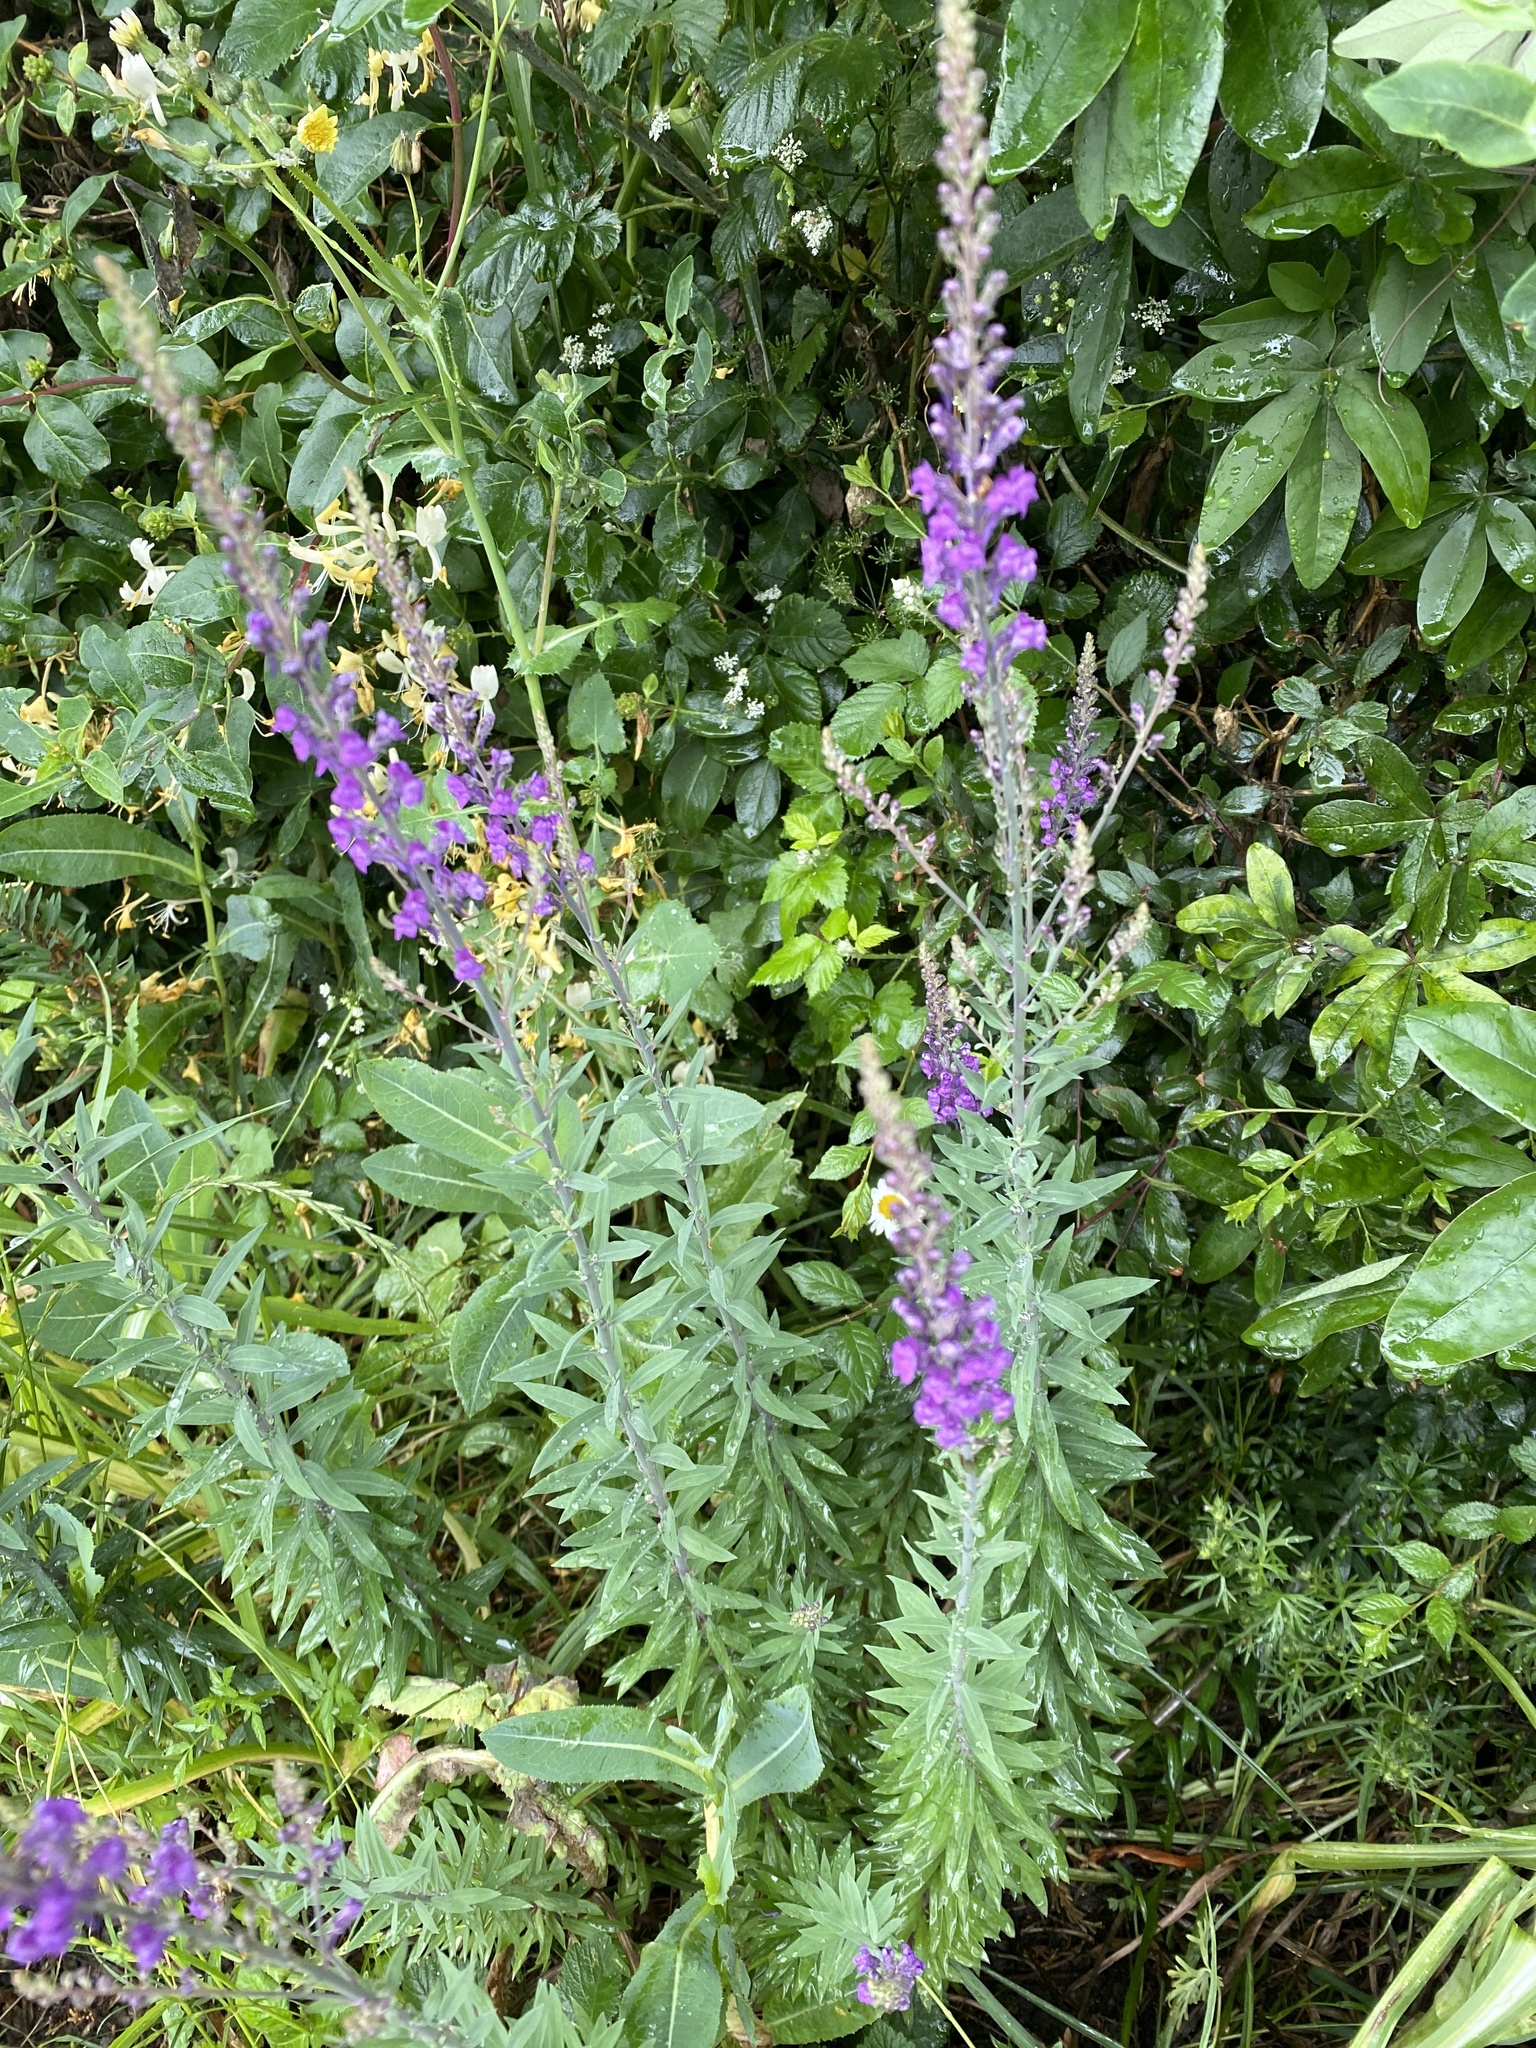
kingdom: Plantae
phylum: Tracheophyta
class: Magnoliopsida
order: Lamiales
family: Plantaginaceae
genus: Linaria
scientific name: Linaria purpurea
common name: Purple toadflax
